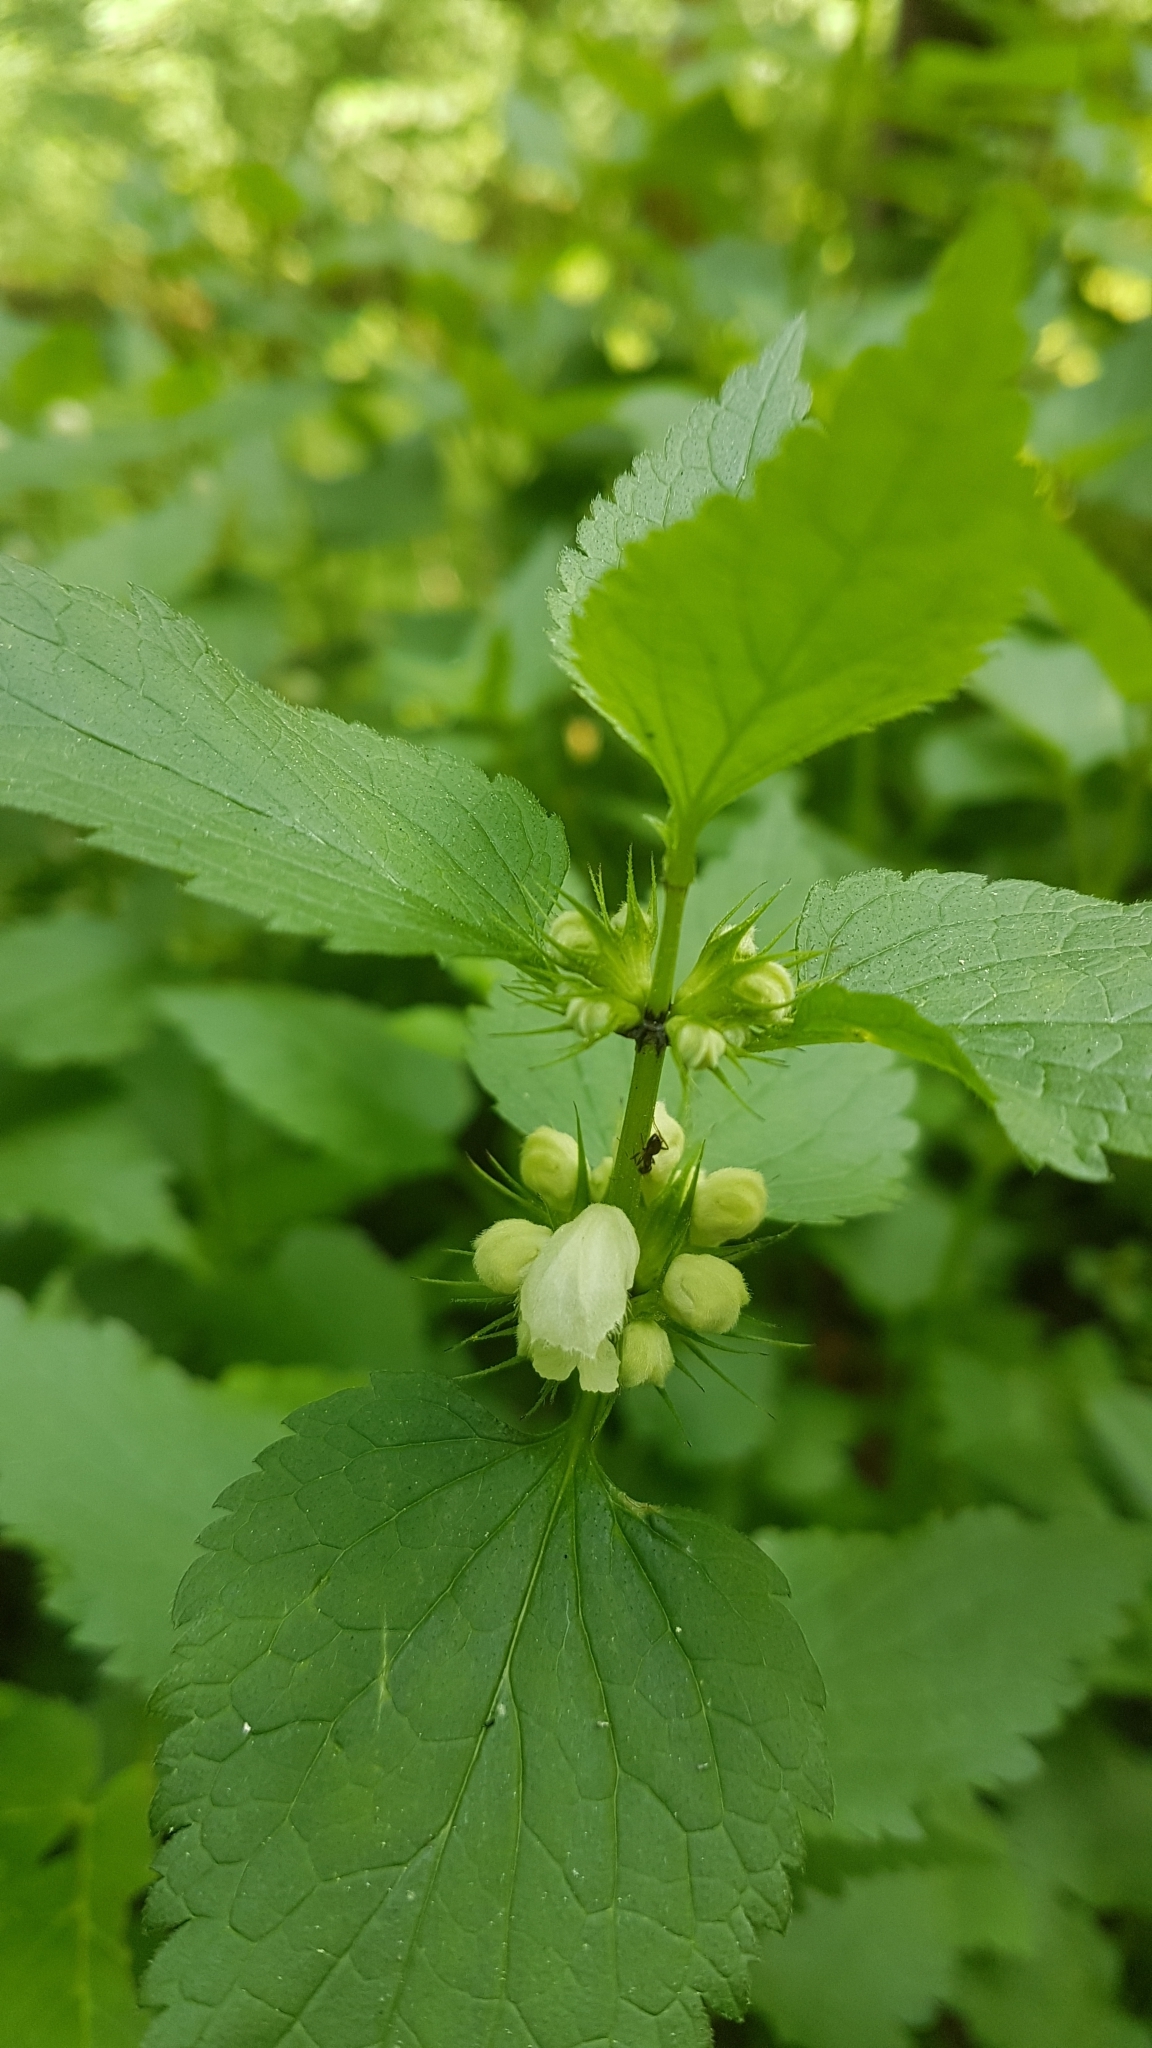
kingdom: Plantae
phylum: Tracheophyta
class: Magnoliopsida
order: Lamiales
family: Lamiaceae
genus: Lamium
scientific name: Lamium album
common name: White dead-nettle
